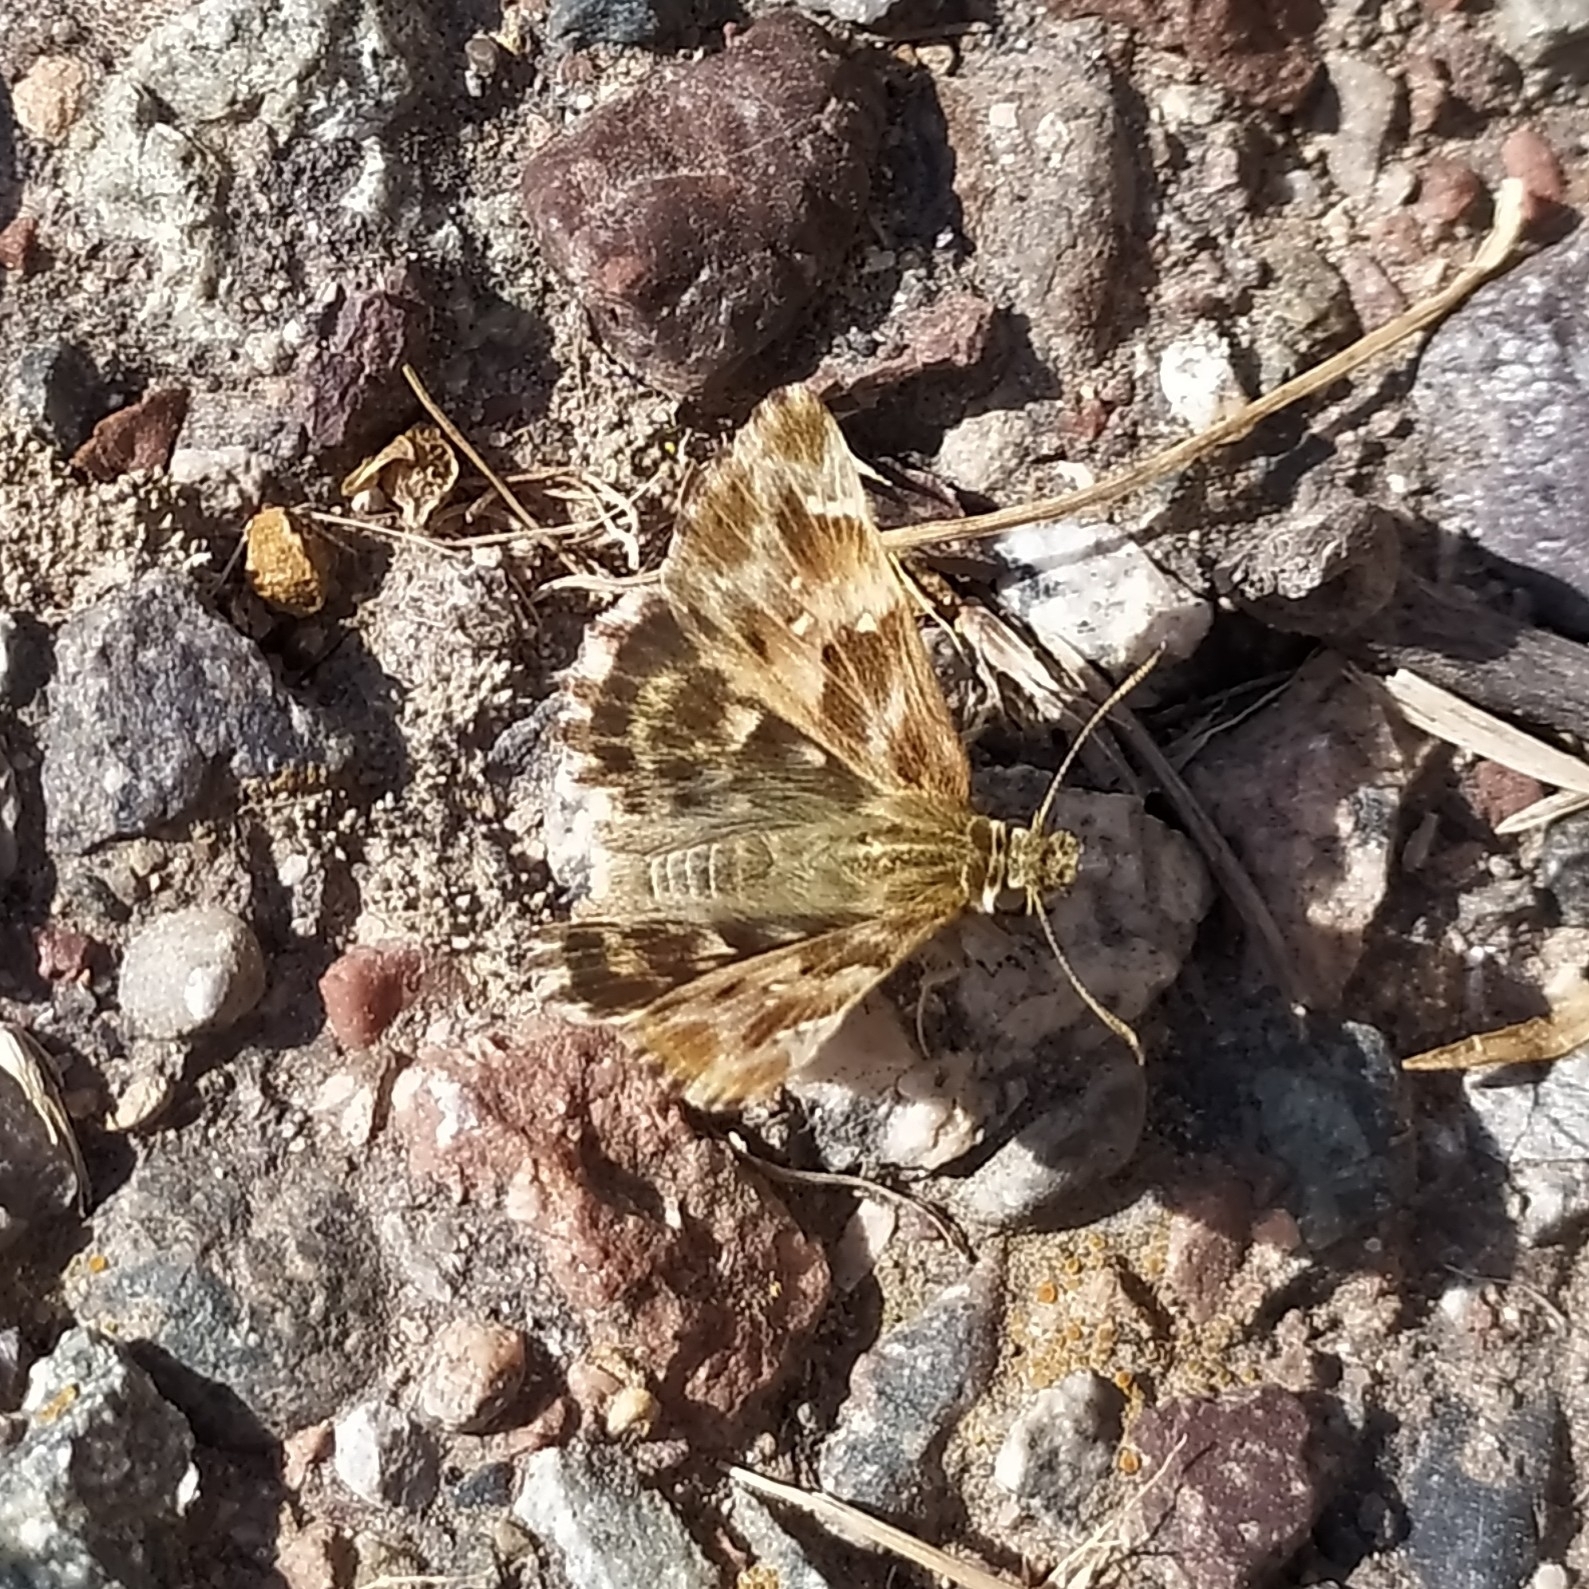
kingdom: Animalia
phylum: Arthropoda
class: Insecta
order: Lepidoptera
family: Hesperiidae
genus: Carcharodus
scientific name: Carcharodus alceae
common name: Mallow skipper
